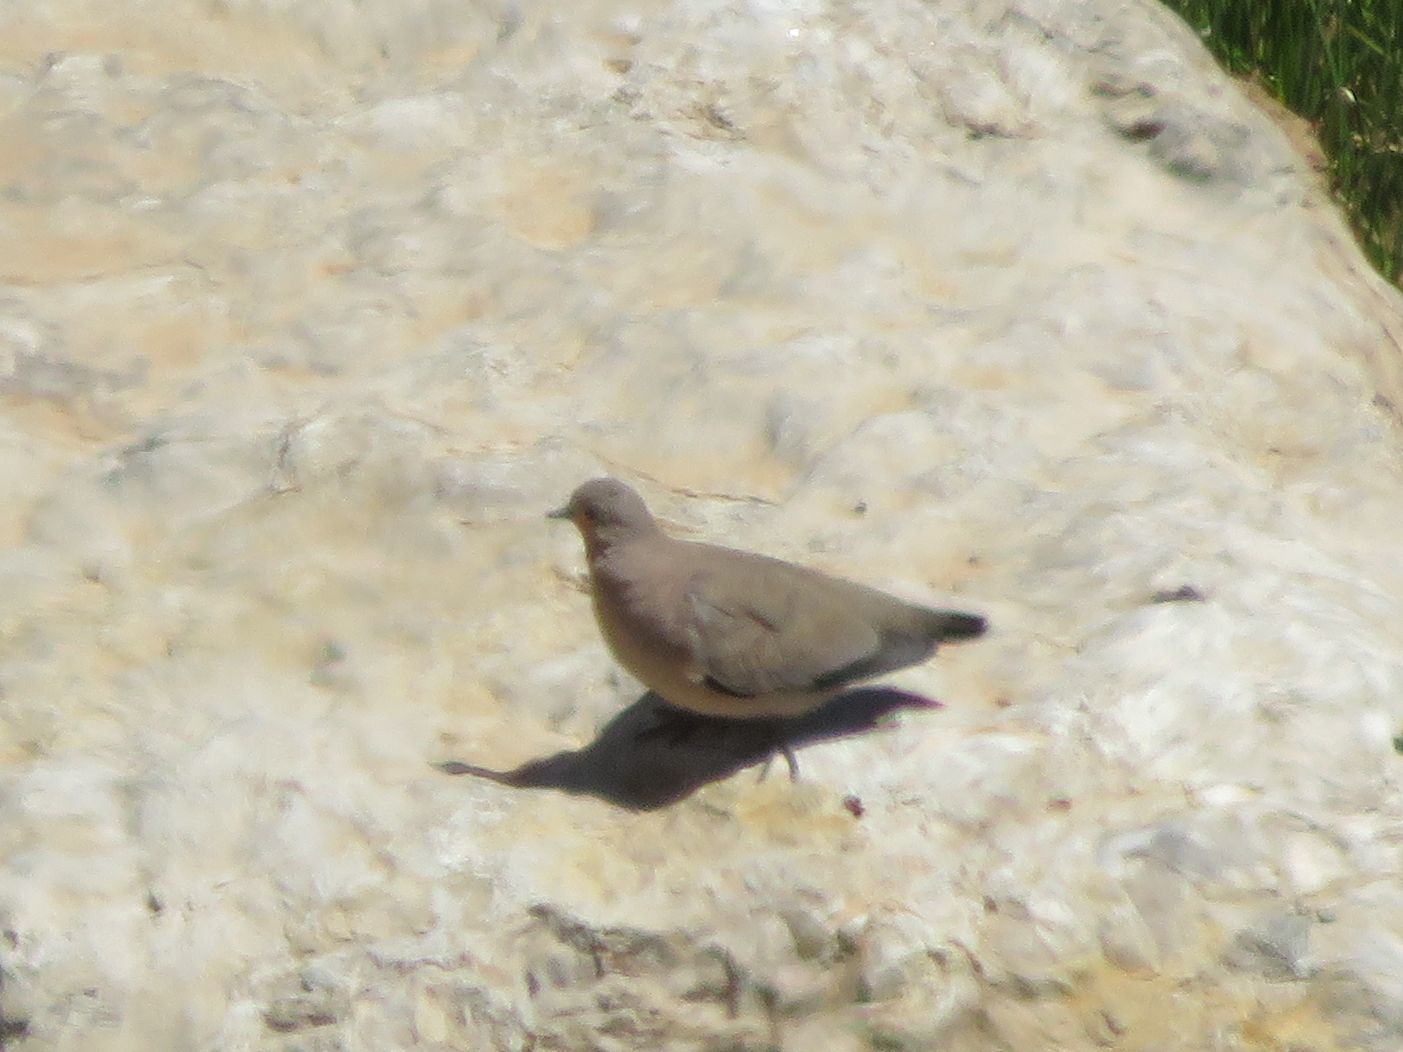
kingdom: Animalia
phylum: Chordata
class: Aves
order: Columbiformes
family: Columbidae
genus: Metriopelia
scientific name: Metriopelia melanoptera
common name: Black-winged ground dove
